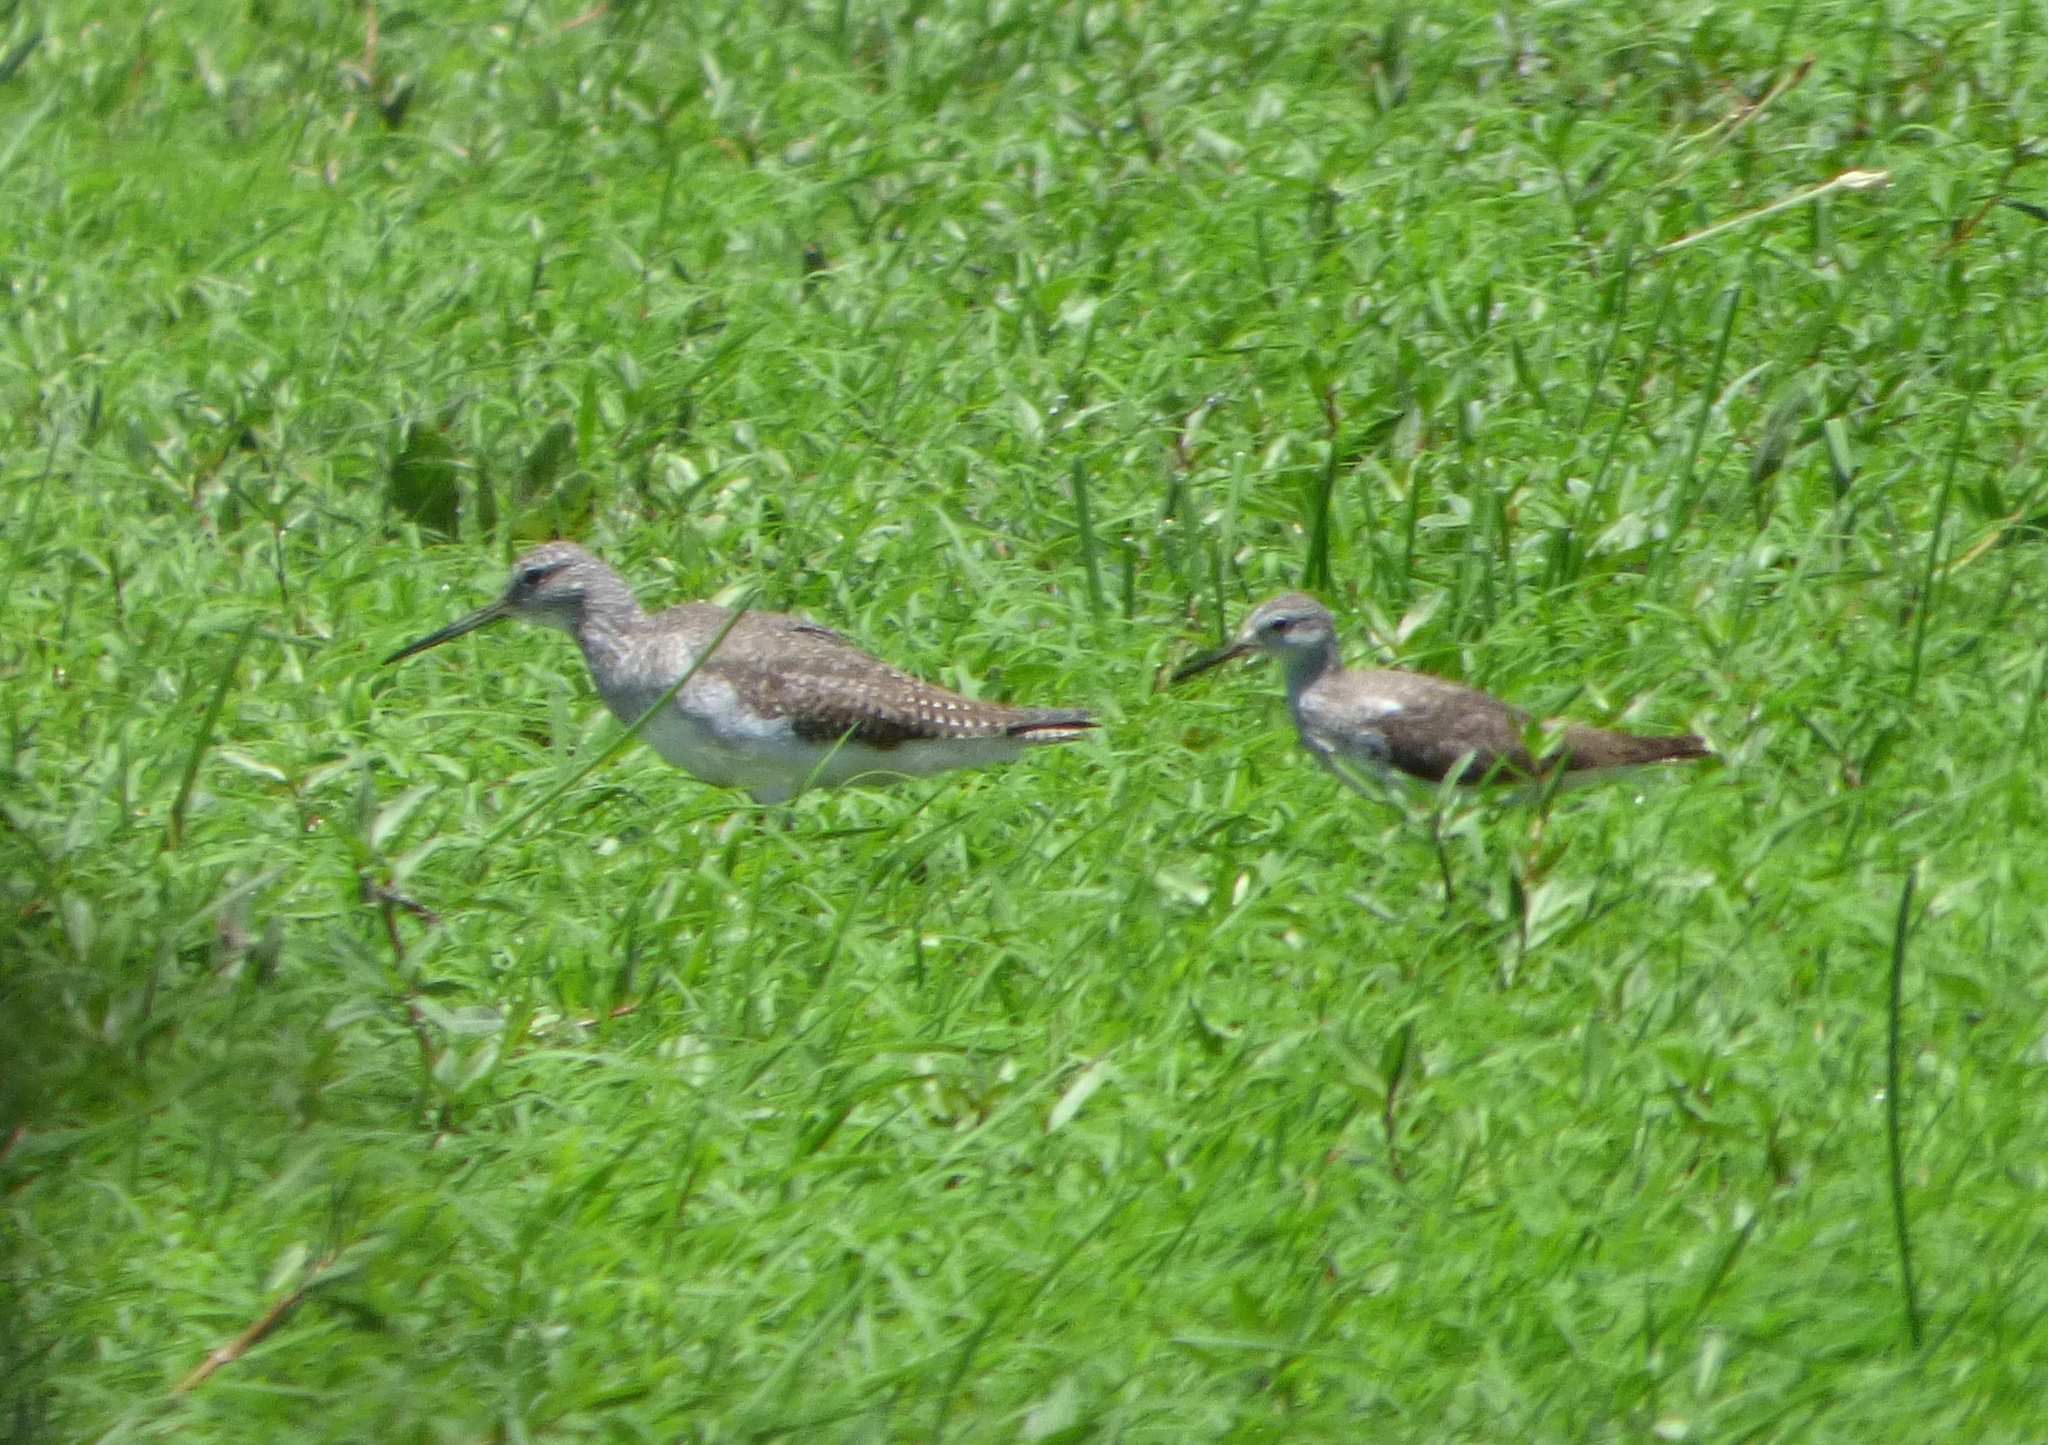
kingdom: Animalia
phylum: Chordata
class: Aves
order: Charadriiformes
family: Scolopacidae
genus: Tringa
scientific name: Tringa flavipes
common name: Lesser yellowlegs
